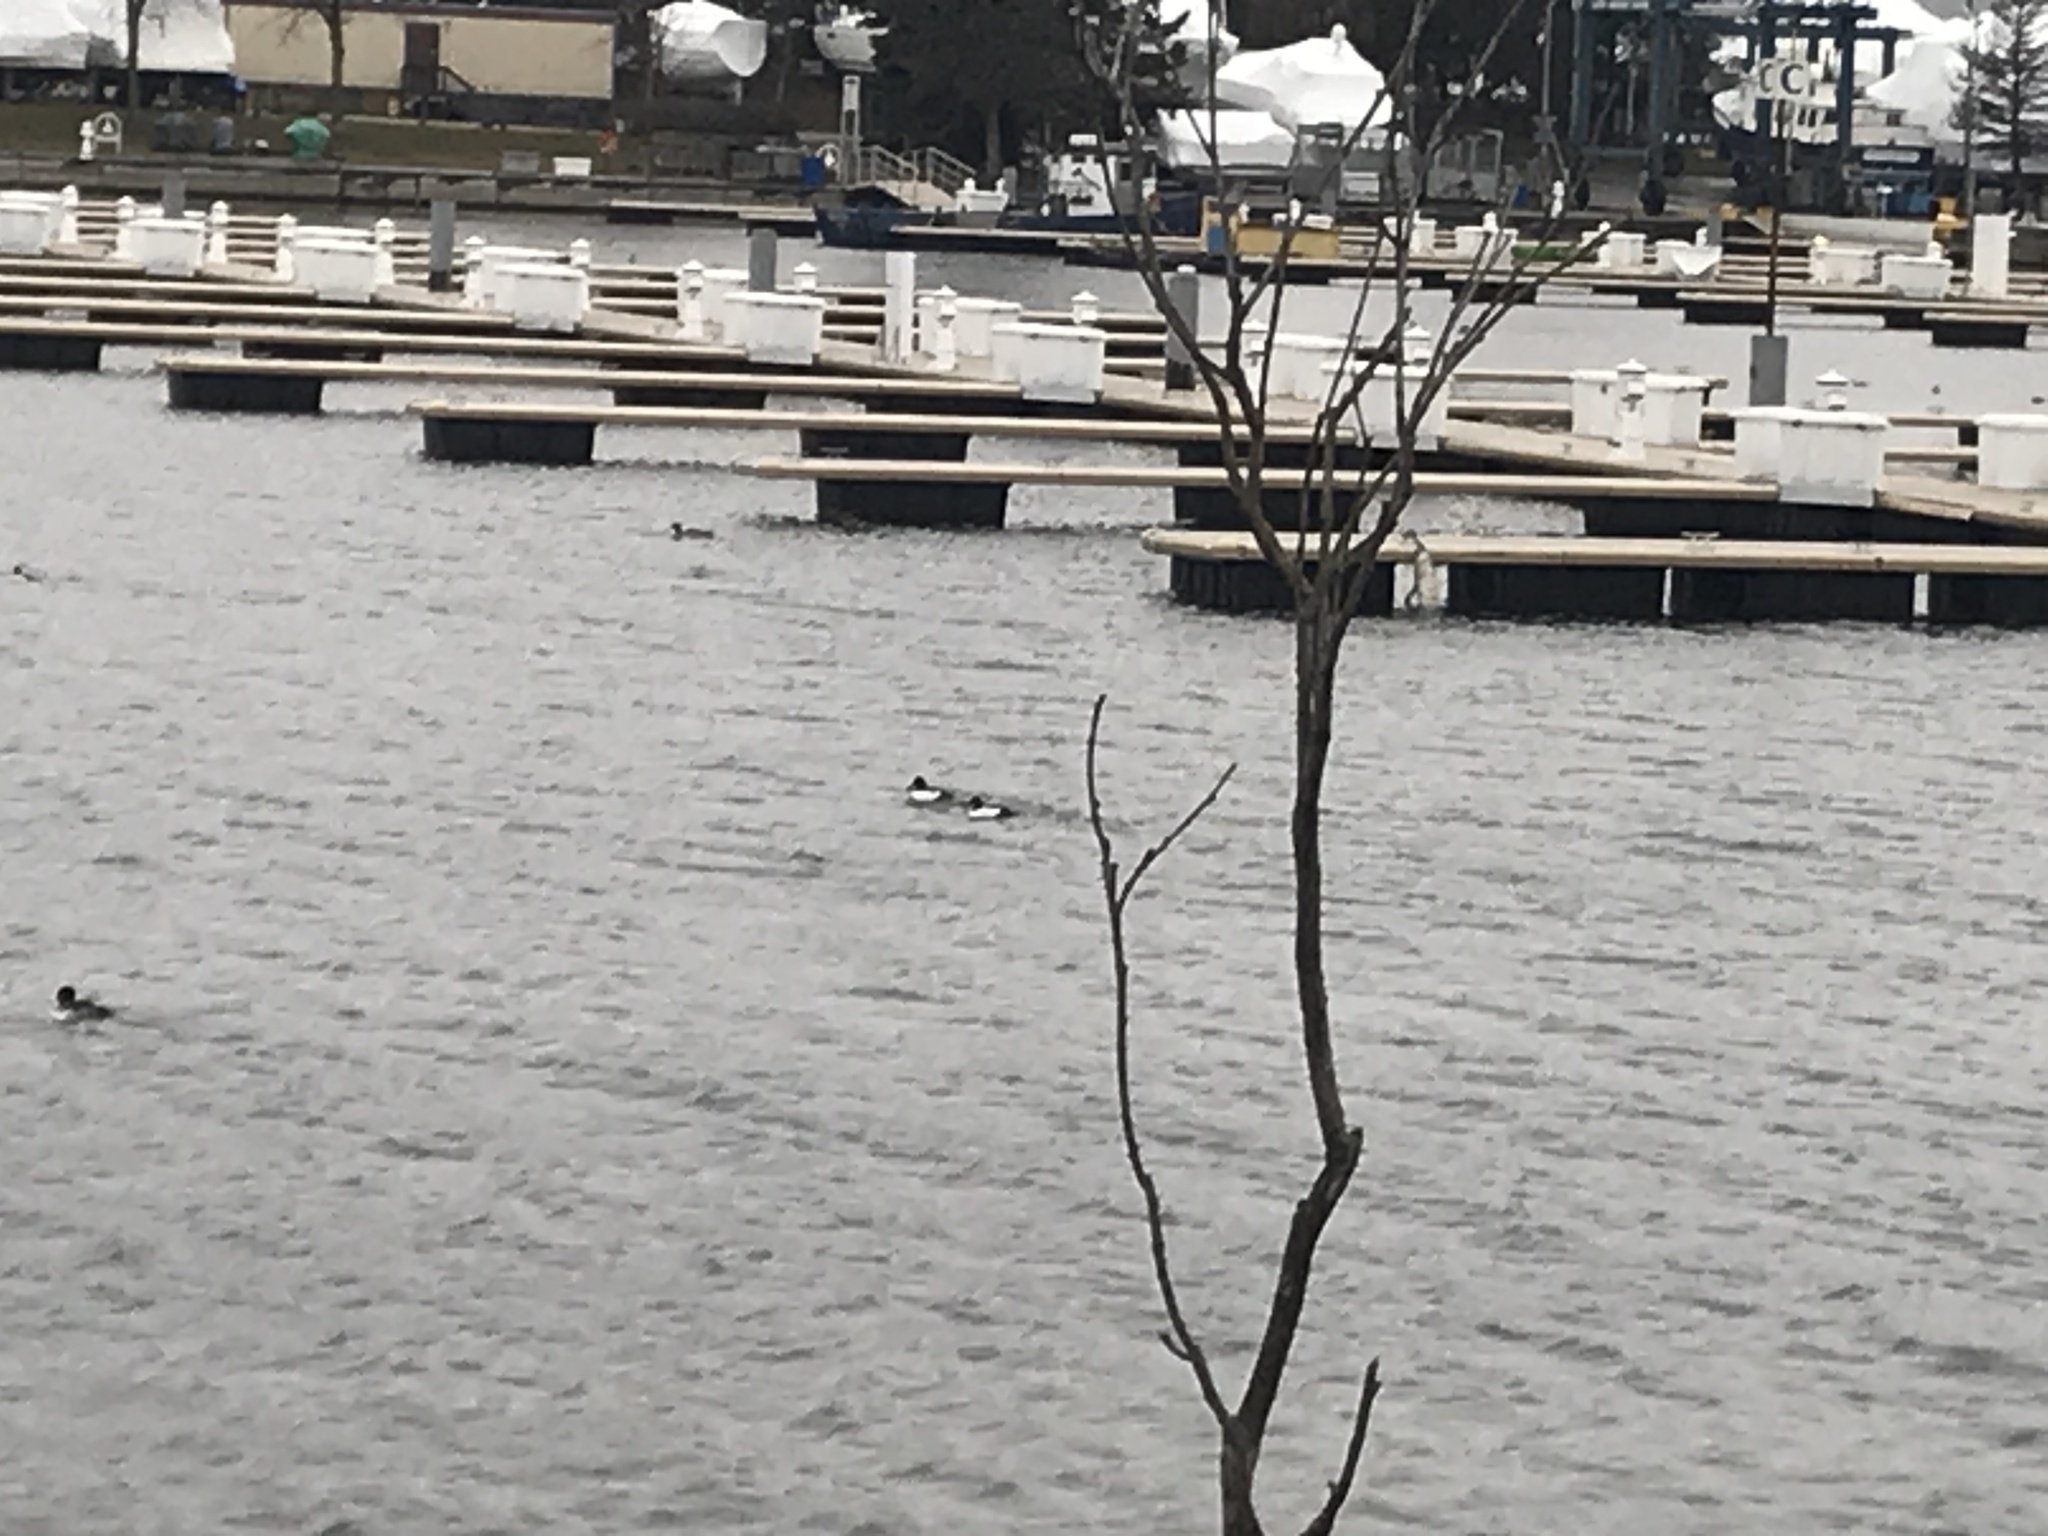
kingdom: Animalia
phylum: Chordata
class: Aves
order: Anseriformes
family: Anatidae
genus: Bucephala
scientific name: Bucephala clangula
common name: Common goldeneye
